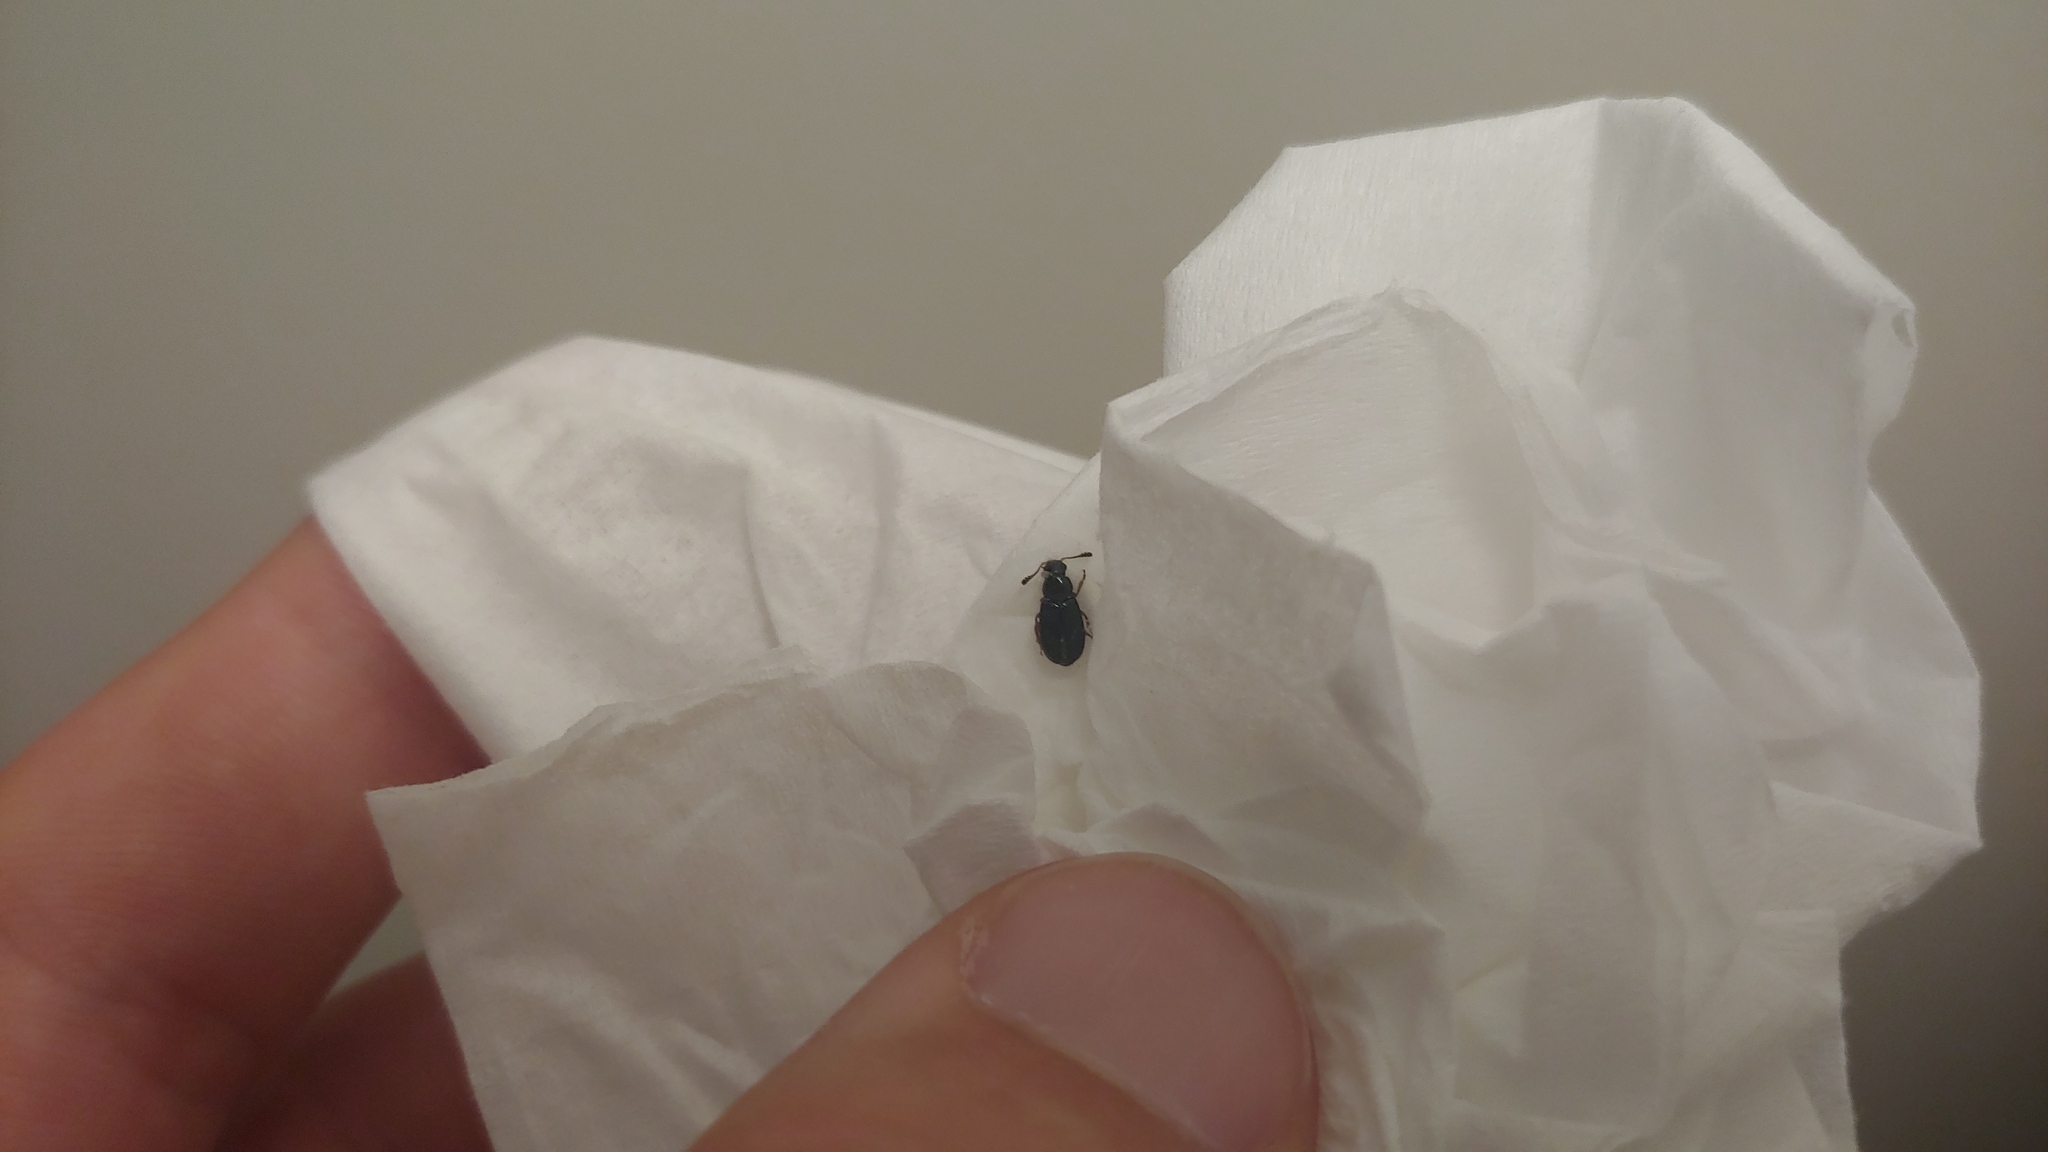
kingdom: Animalia
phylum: Arthropoda
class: Insecta
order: Coleoptera
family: Cleridae
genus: Necrobia
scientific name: Necrobia rufipes
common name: Red-legged ham beetle
